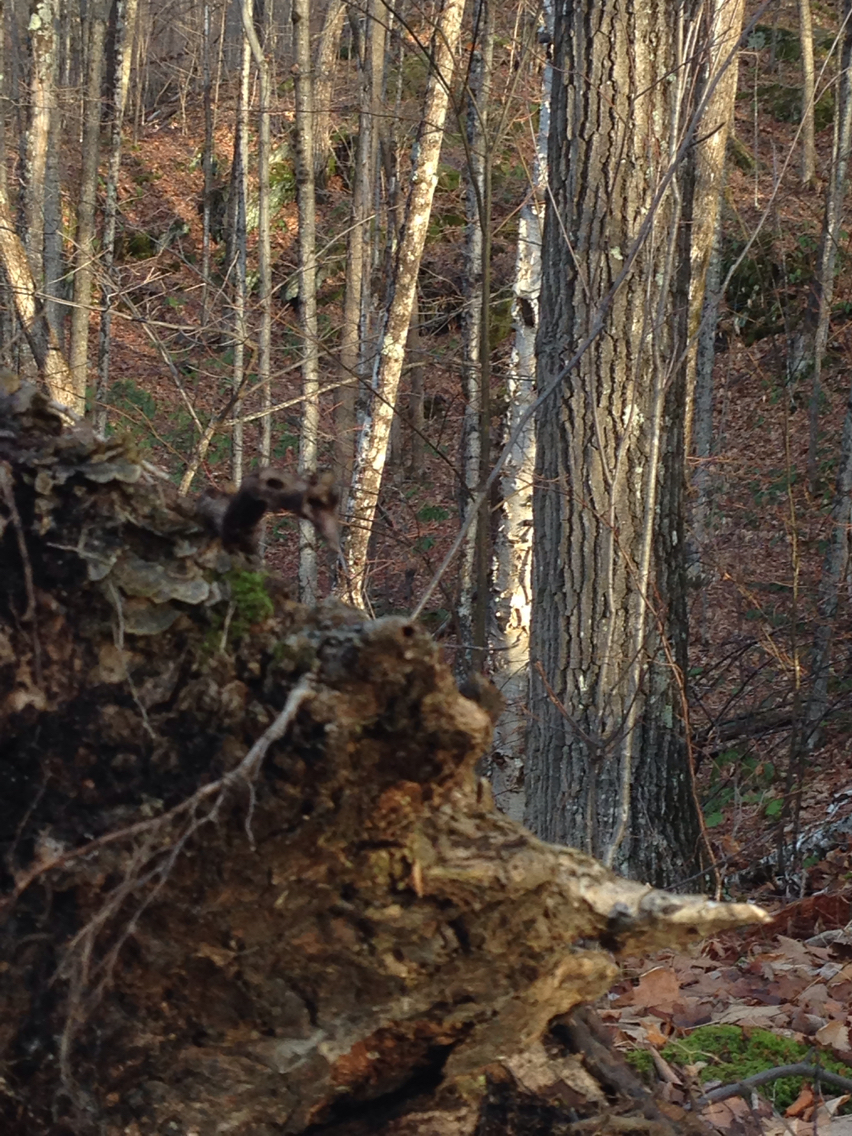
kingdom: Plantae
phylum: Tracheophyta
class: Magnoliopsida
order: Fagales
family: Betulaceae
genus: Betula
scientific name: Betula papyrifera
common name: Paper birch
